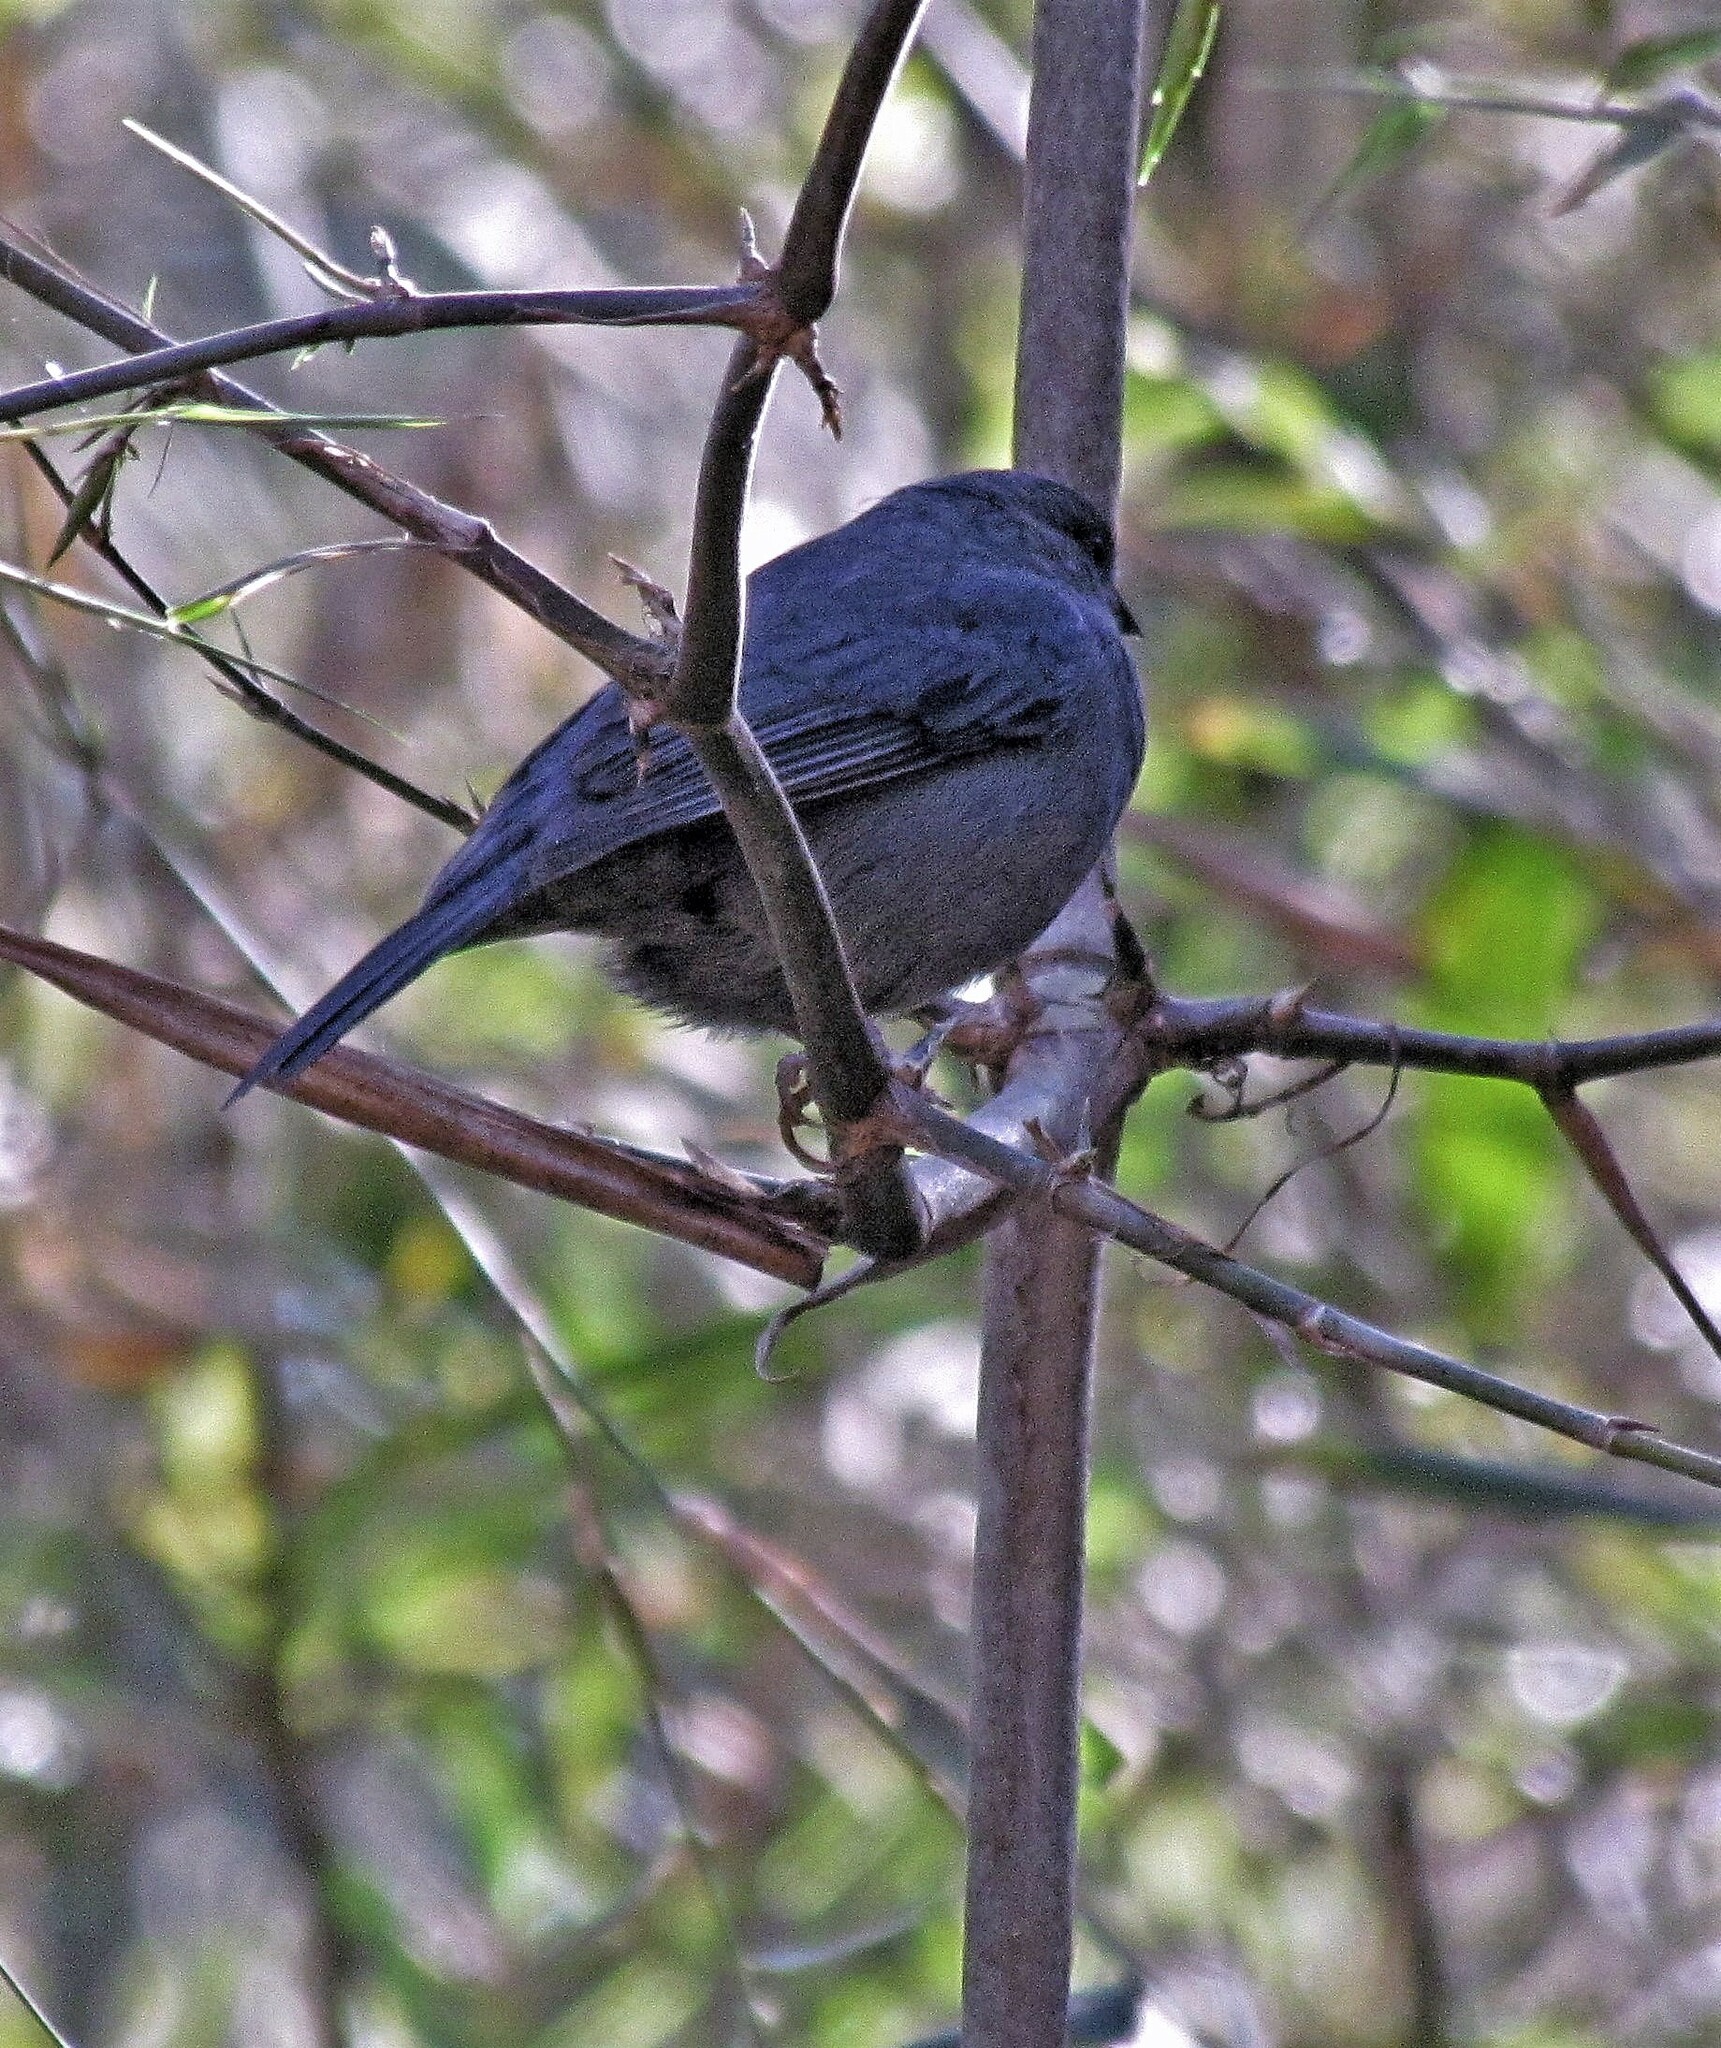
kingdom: Animalia
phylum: Chordata
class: Aves
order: Passeriformes
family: Thraupidae
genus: Haplospiza
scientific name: Haplospiza unicolor
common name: Uniform finch
